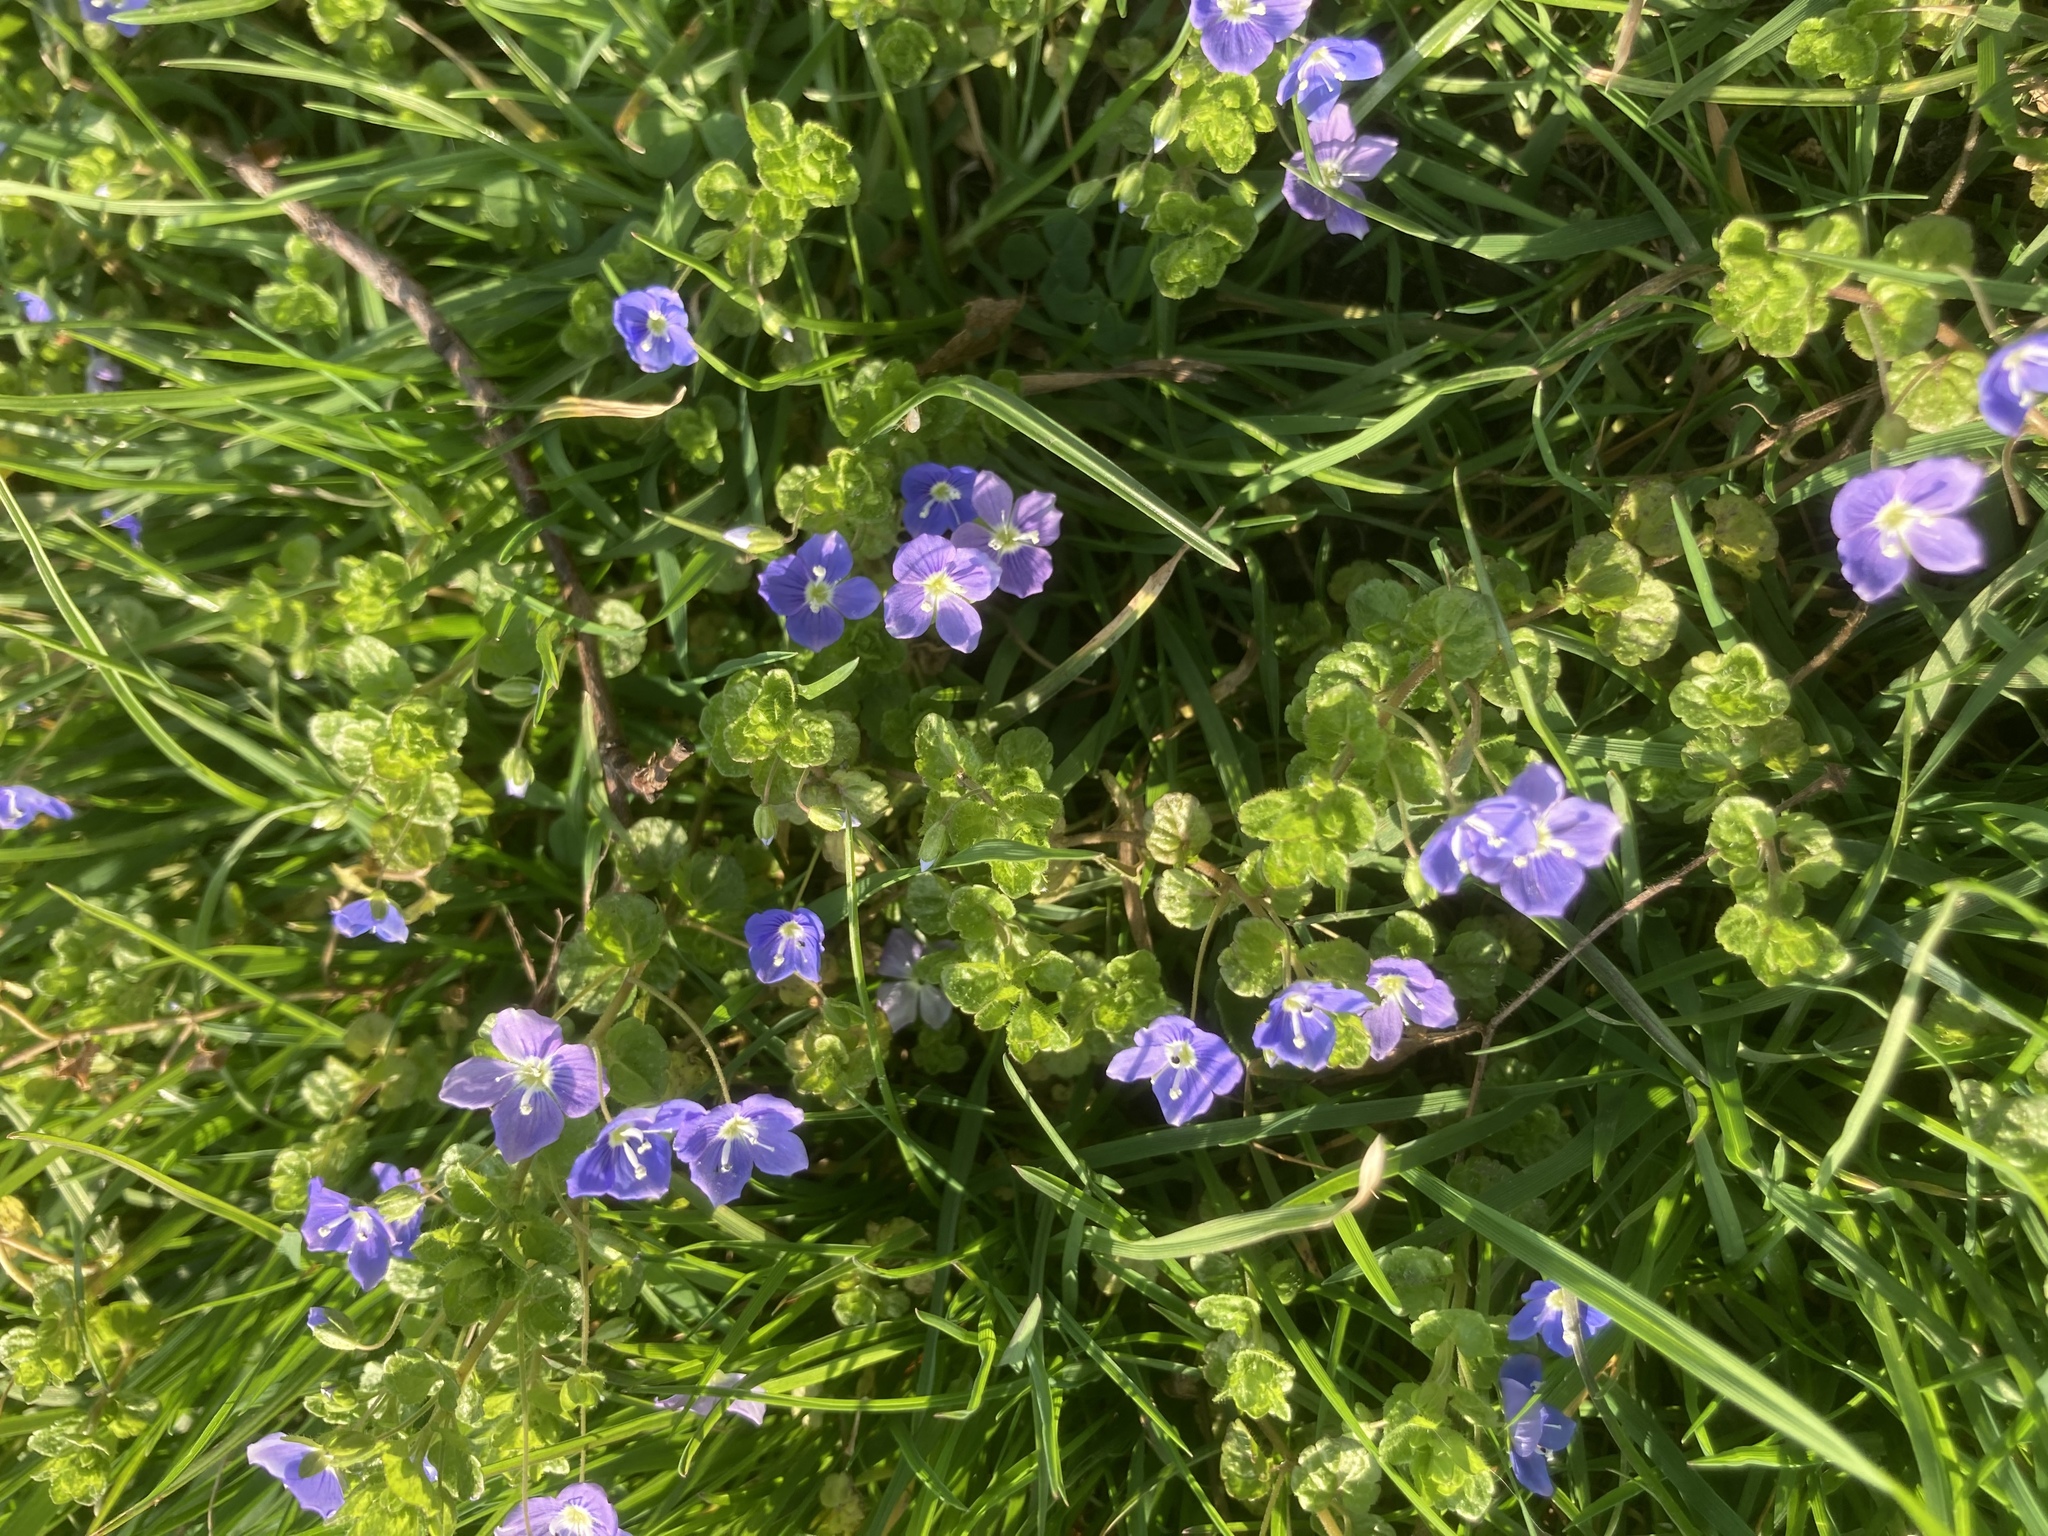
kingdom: Plantae
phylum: Tracheophyta
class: Magnoliopsida
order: Lamiales
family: Plantaginaceae
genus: Veronica
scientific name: Veronica filiformis
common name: Slender speedwell
